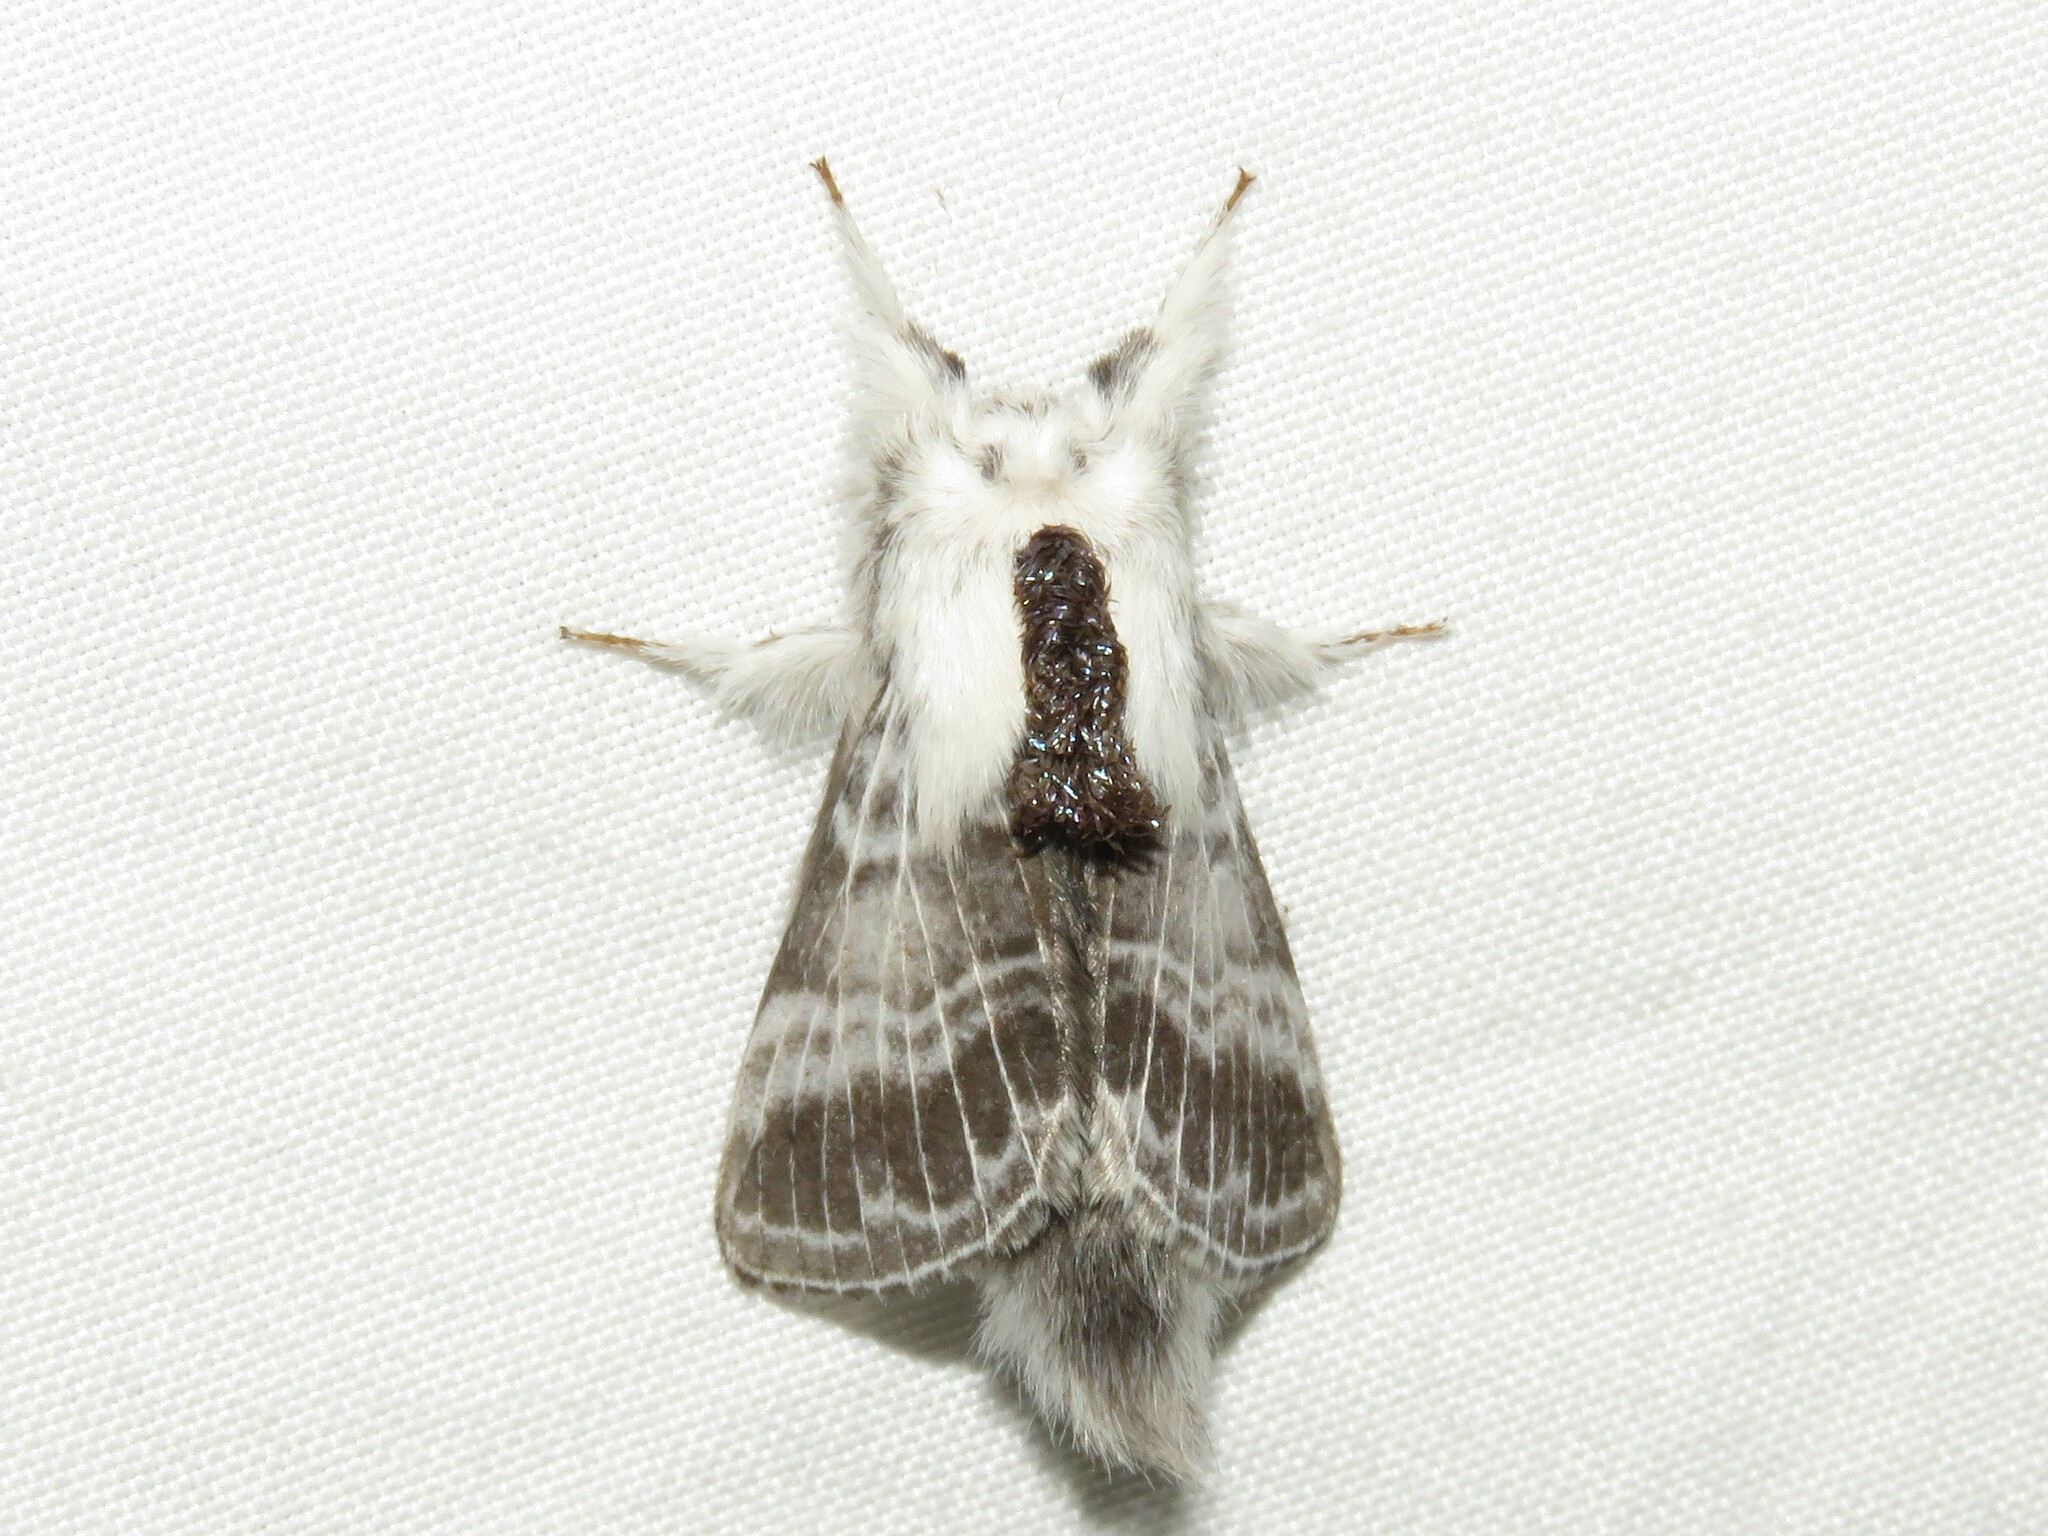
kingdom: Animalia
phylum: Arthropoda
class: Insecta
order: Lepidoptera
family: Lasiocampidae
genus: Tolype
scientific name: Tolype velleda
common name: Large tolype moth
